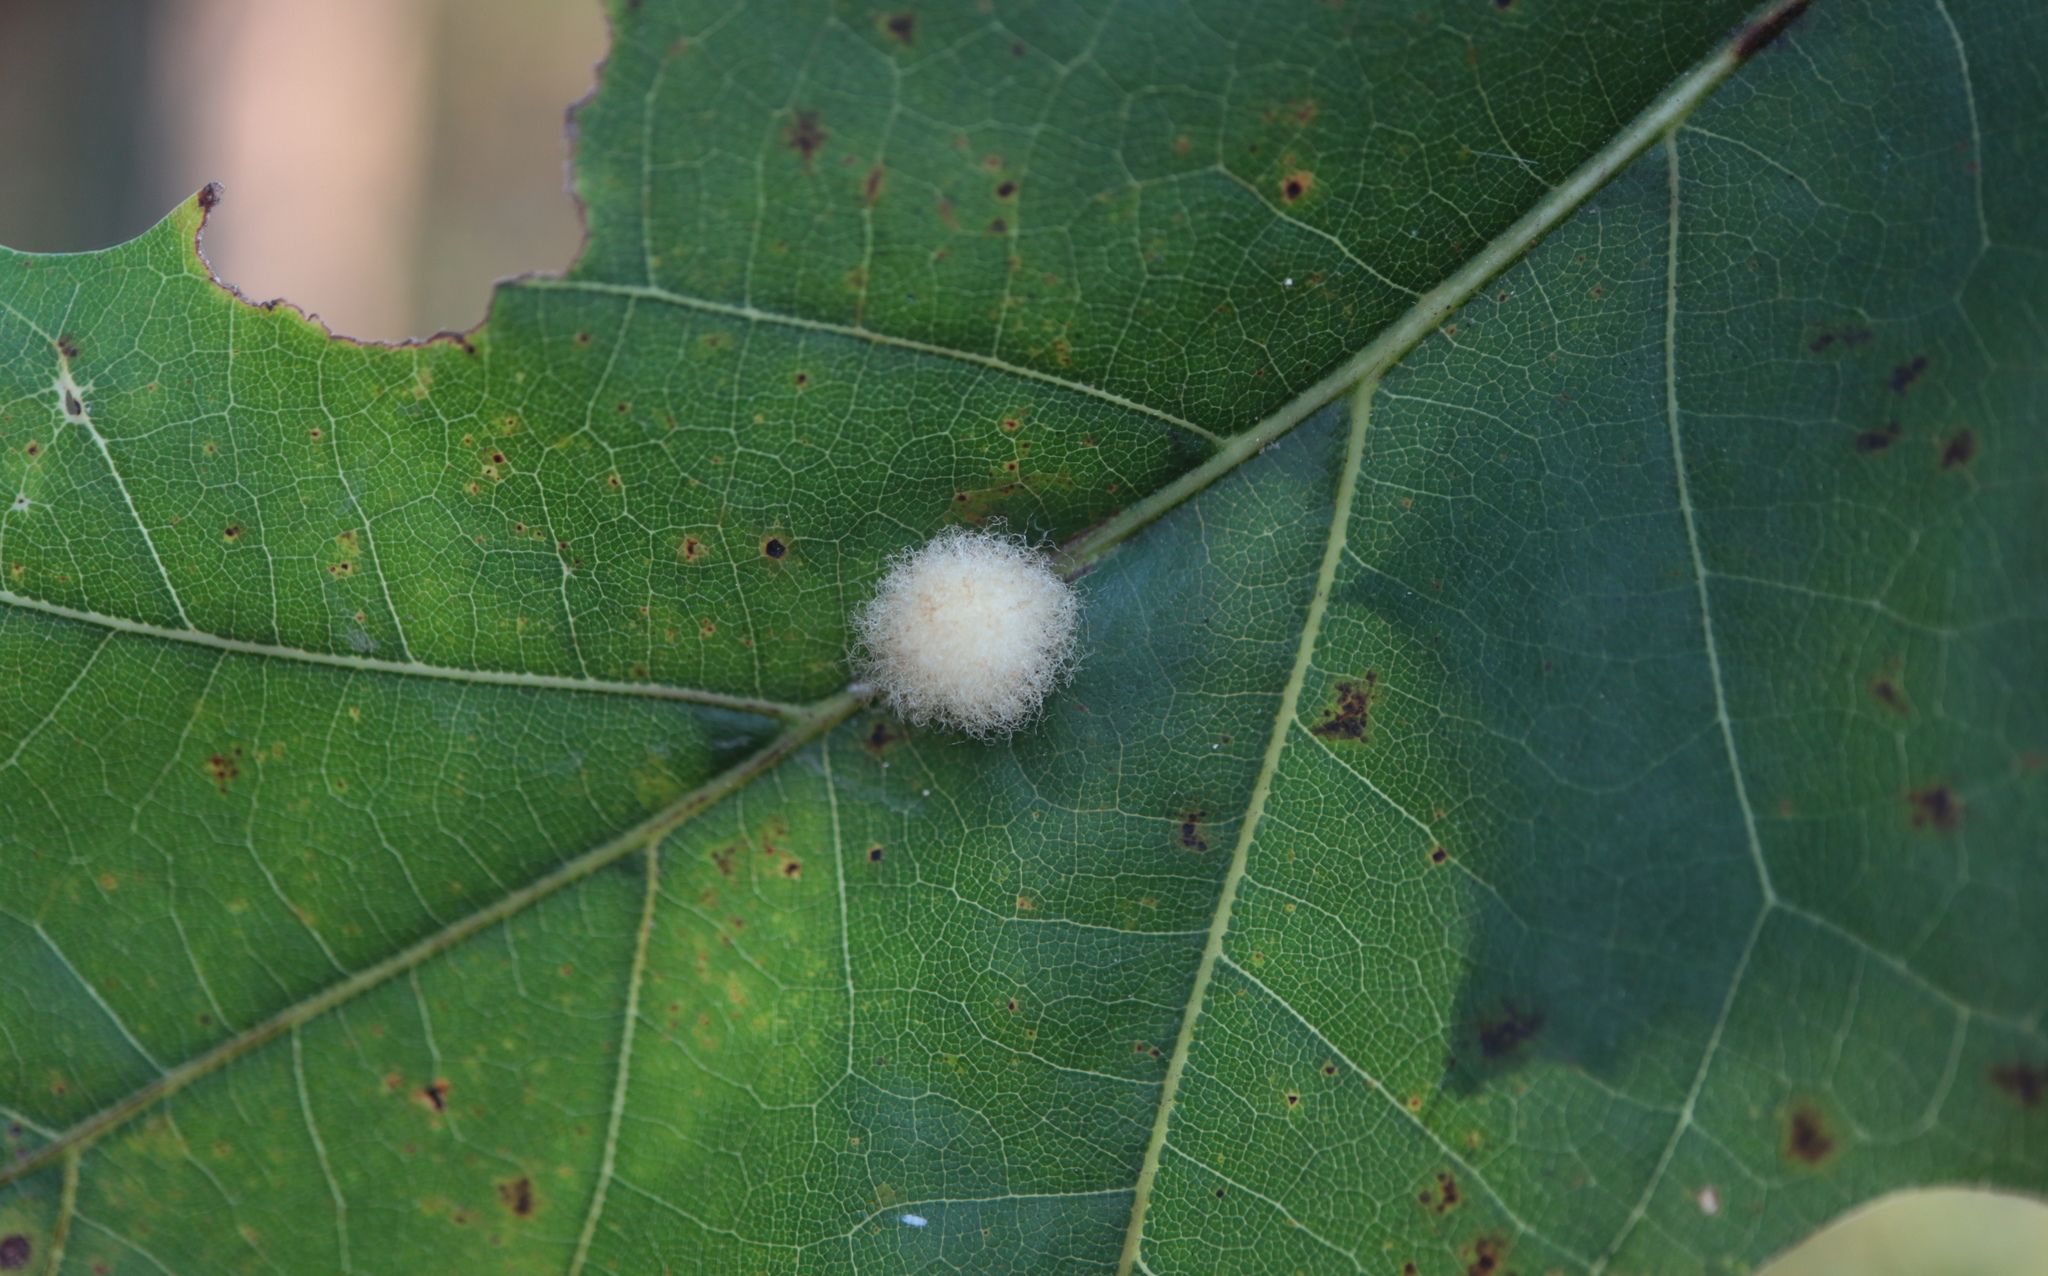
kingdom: Animalia
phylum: Arthropoda
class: Insecta
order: Hymenoptera
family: Cynipidae
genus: Callirhytis
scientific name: Callirhytis
